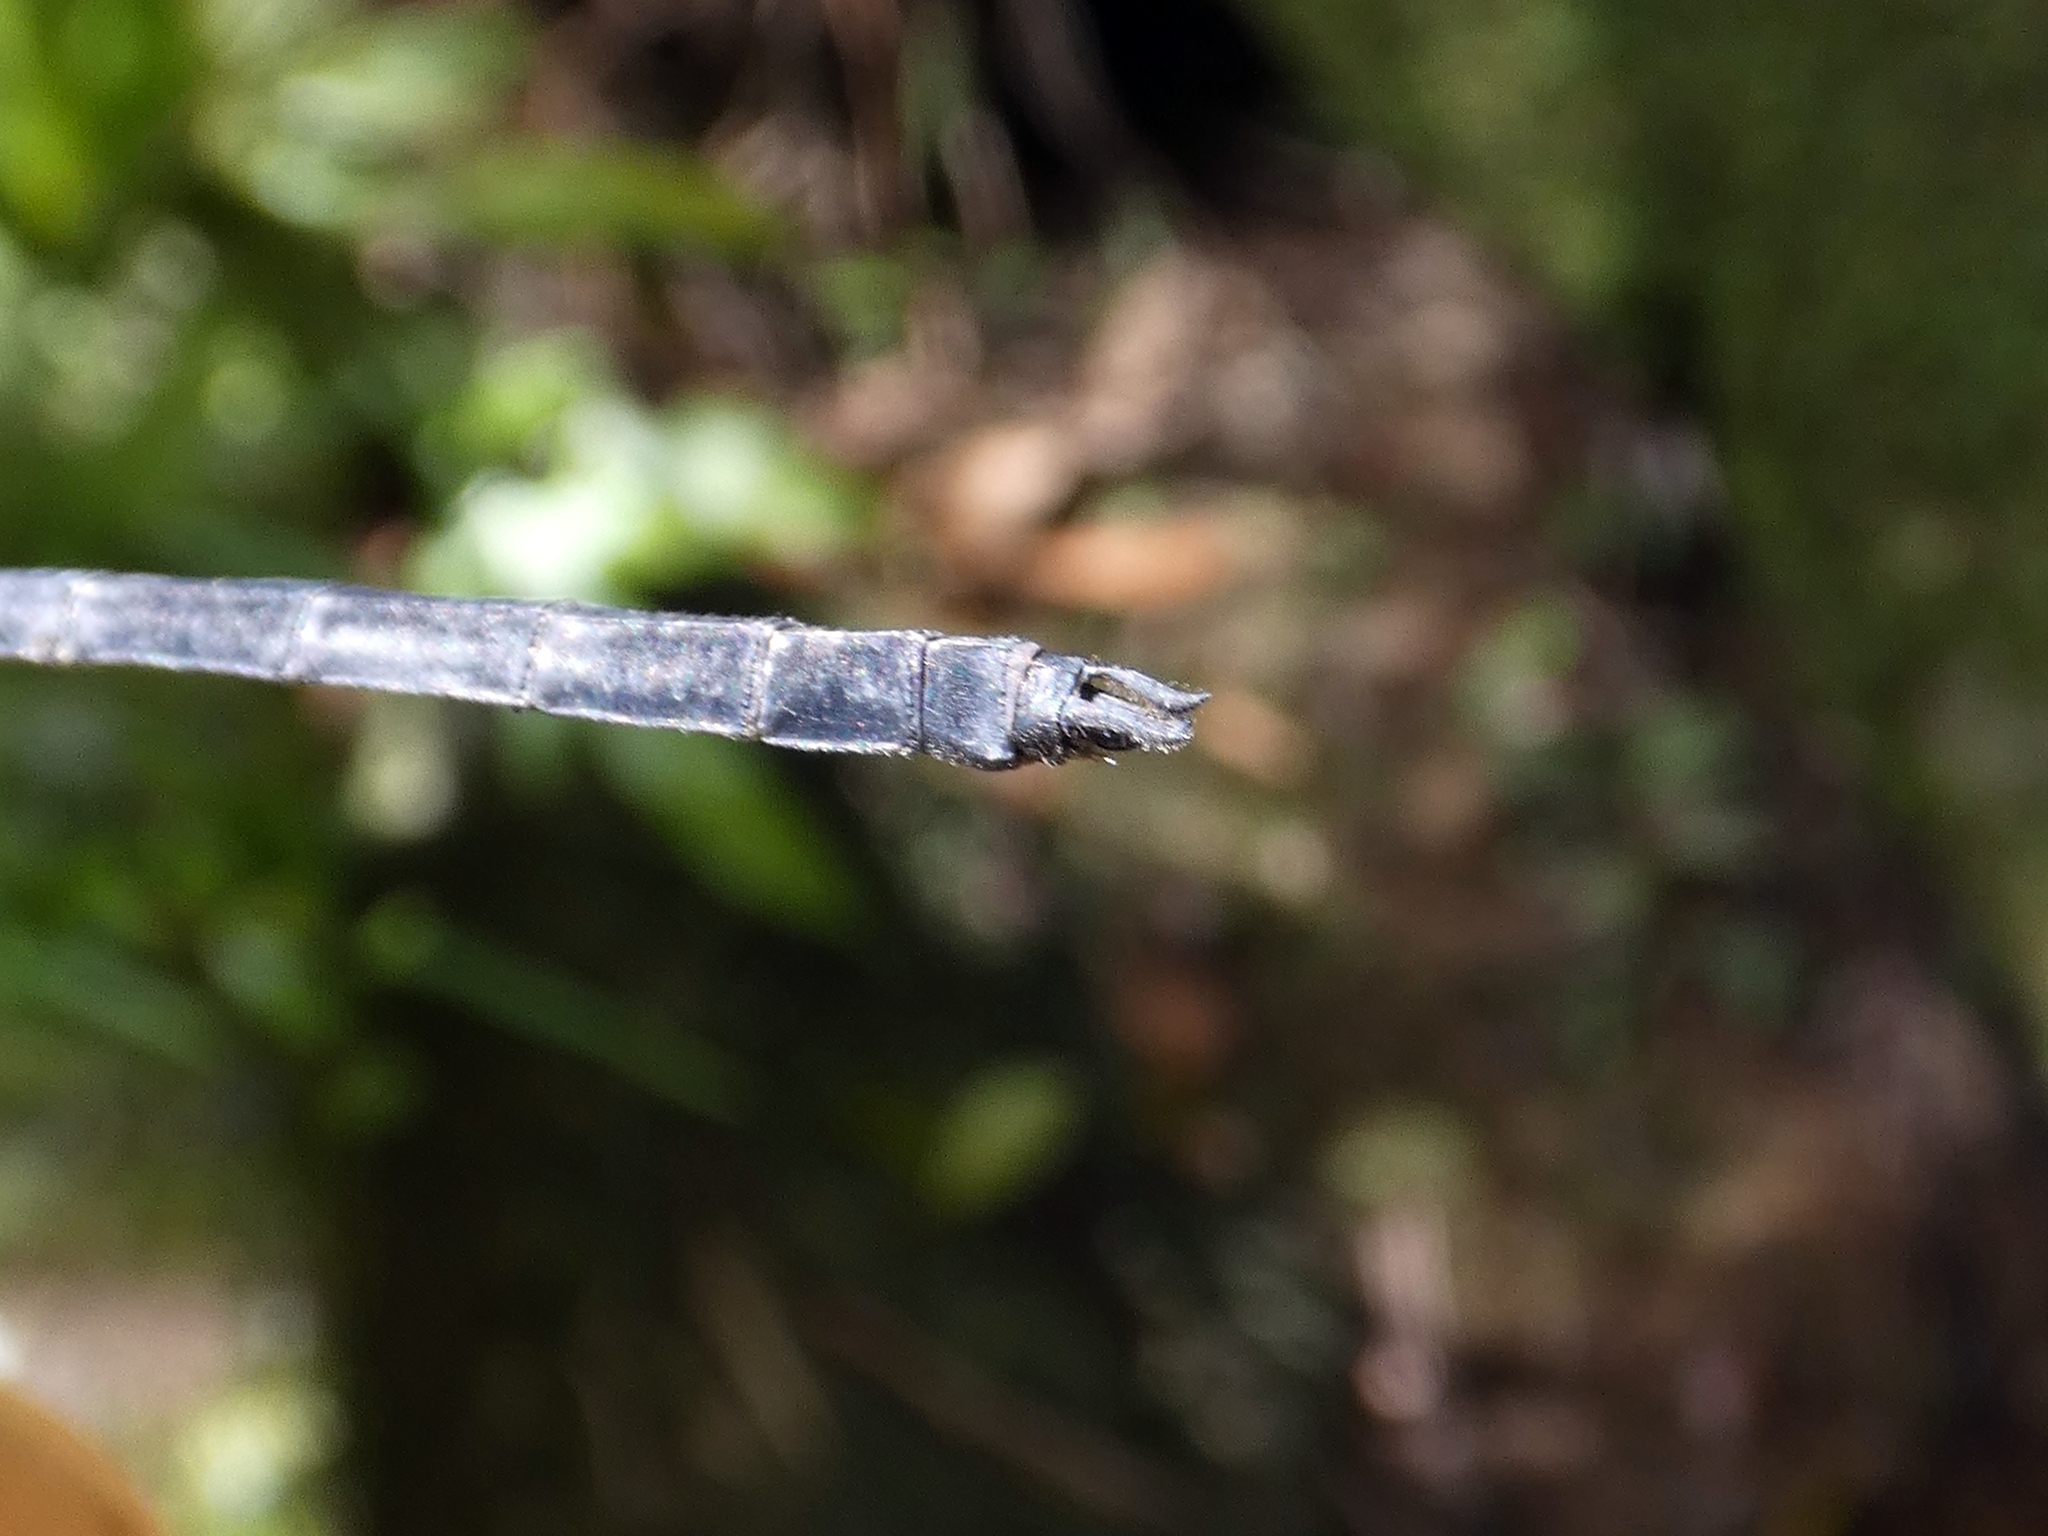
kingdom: Animalia
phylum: Arthropoda
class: Insecta
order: Odonata
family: Libellulidae
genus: Agrionoptera
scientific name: Agrionoptera longitudinalis
